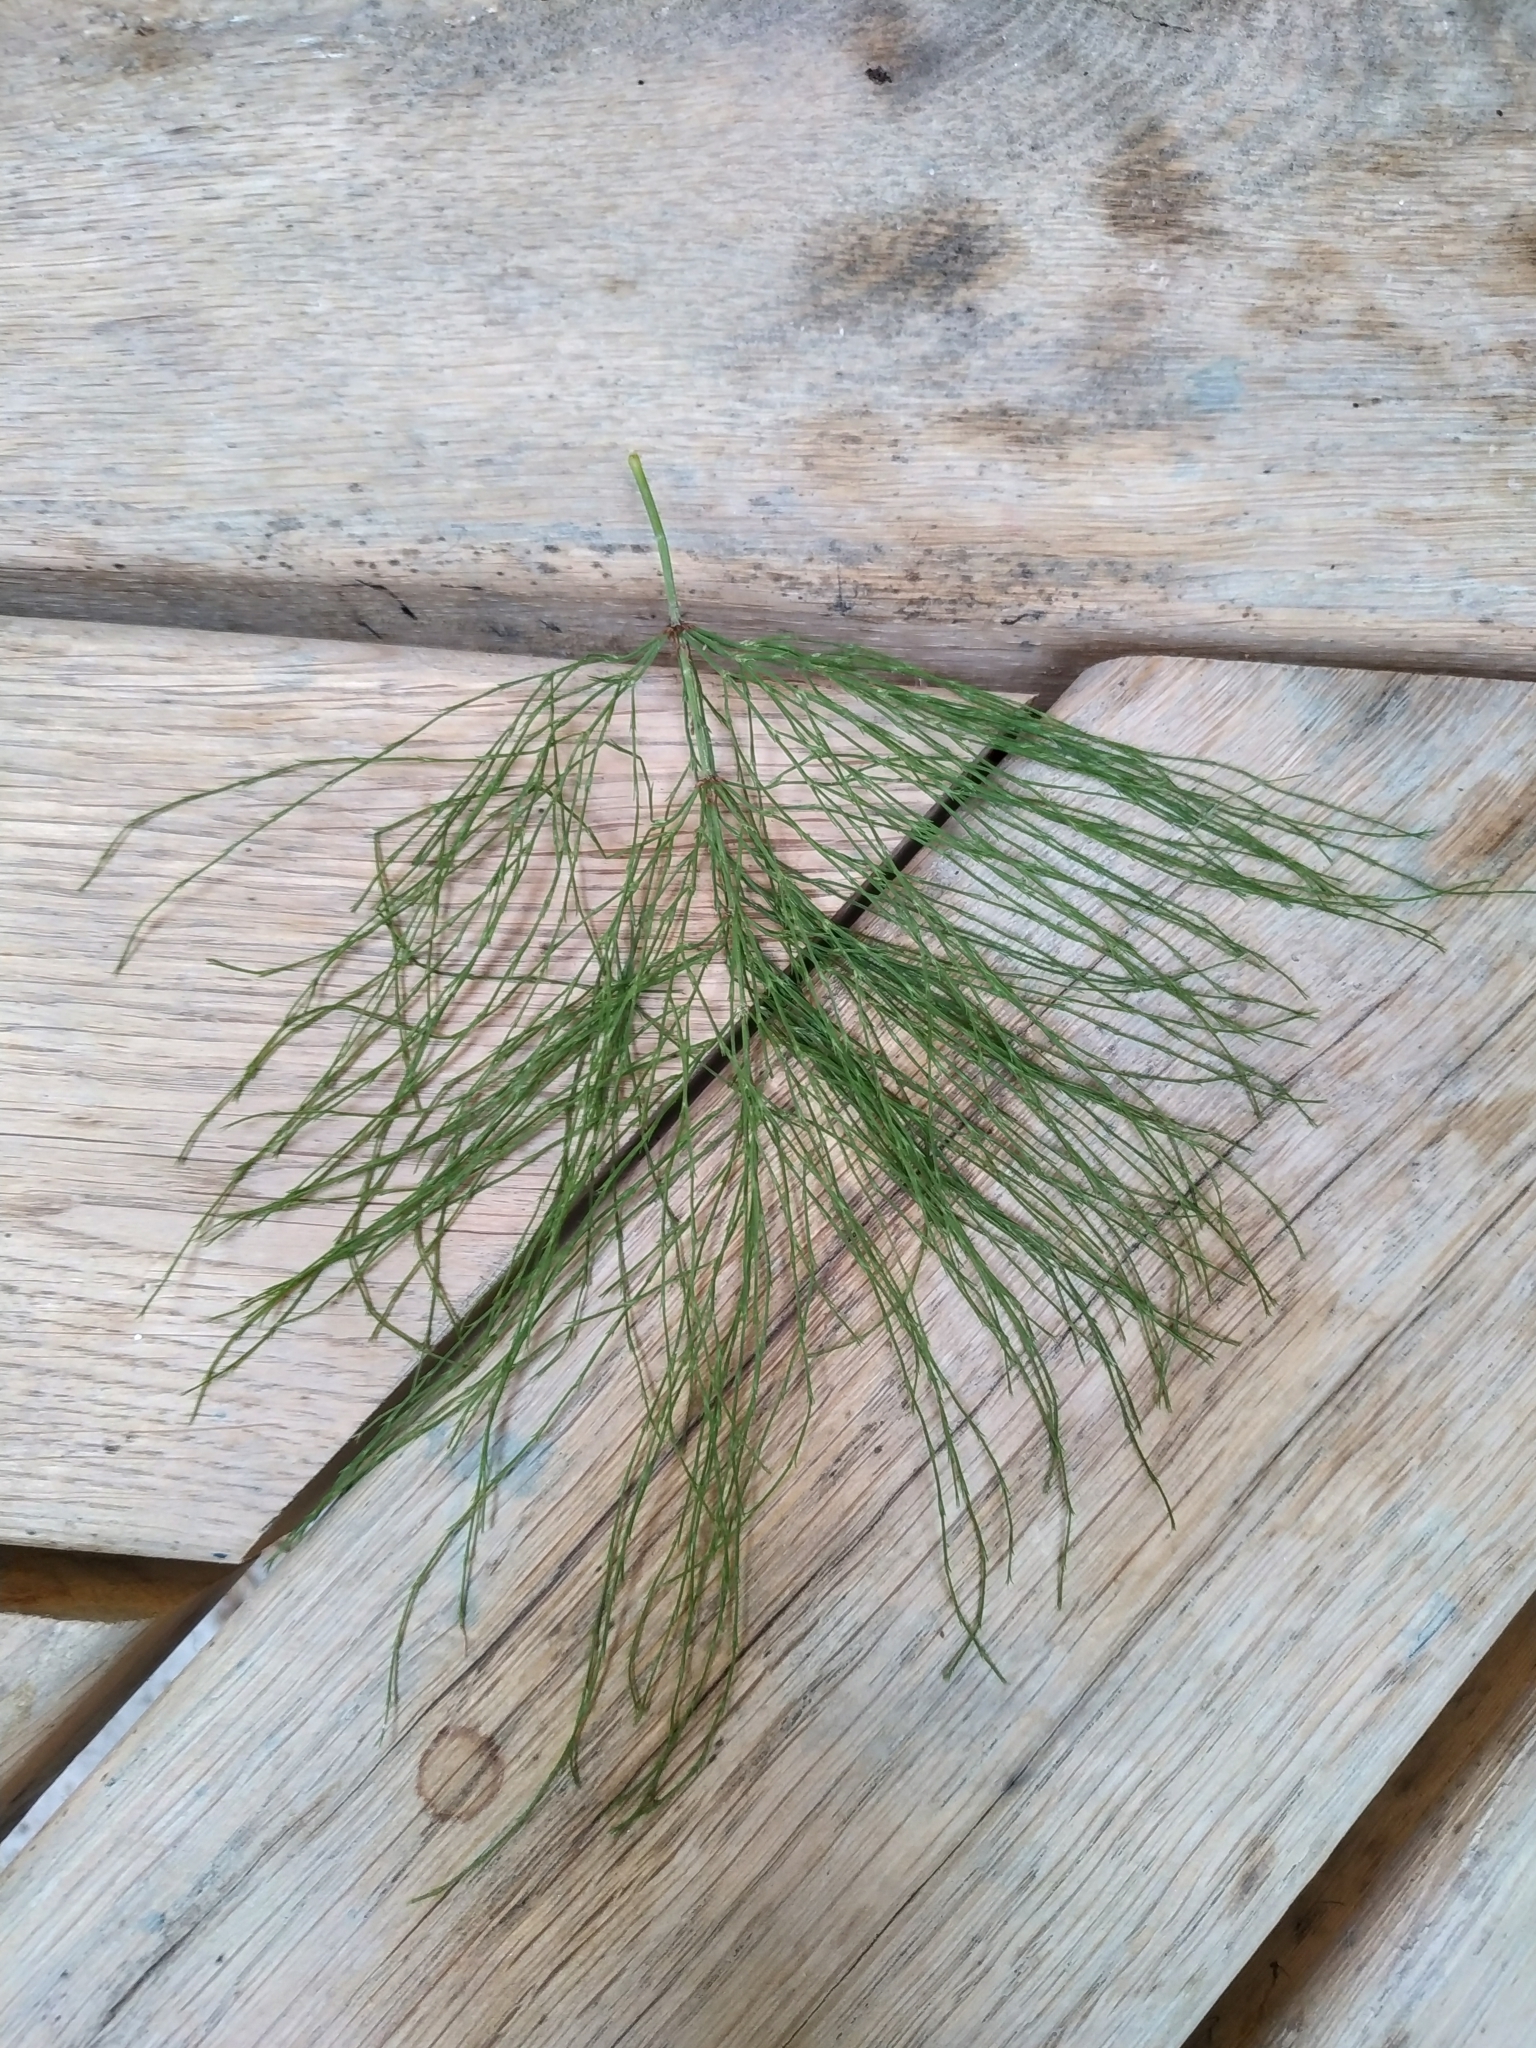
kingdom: Plantae
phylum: Tracheophyta
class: Polypodiopsida
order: Equisetales
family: Equisetaceae
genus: Equisetum
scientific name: Equisetum sylvaticum
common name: Wood horsetail
